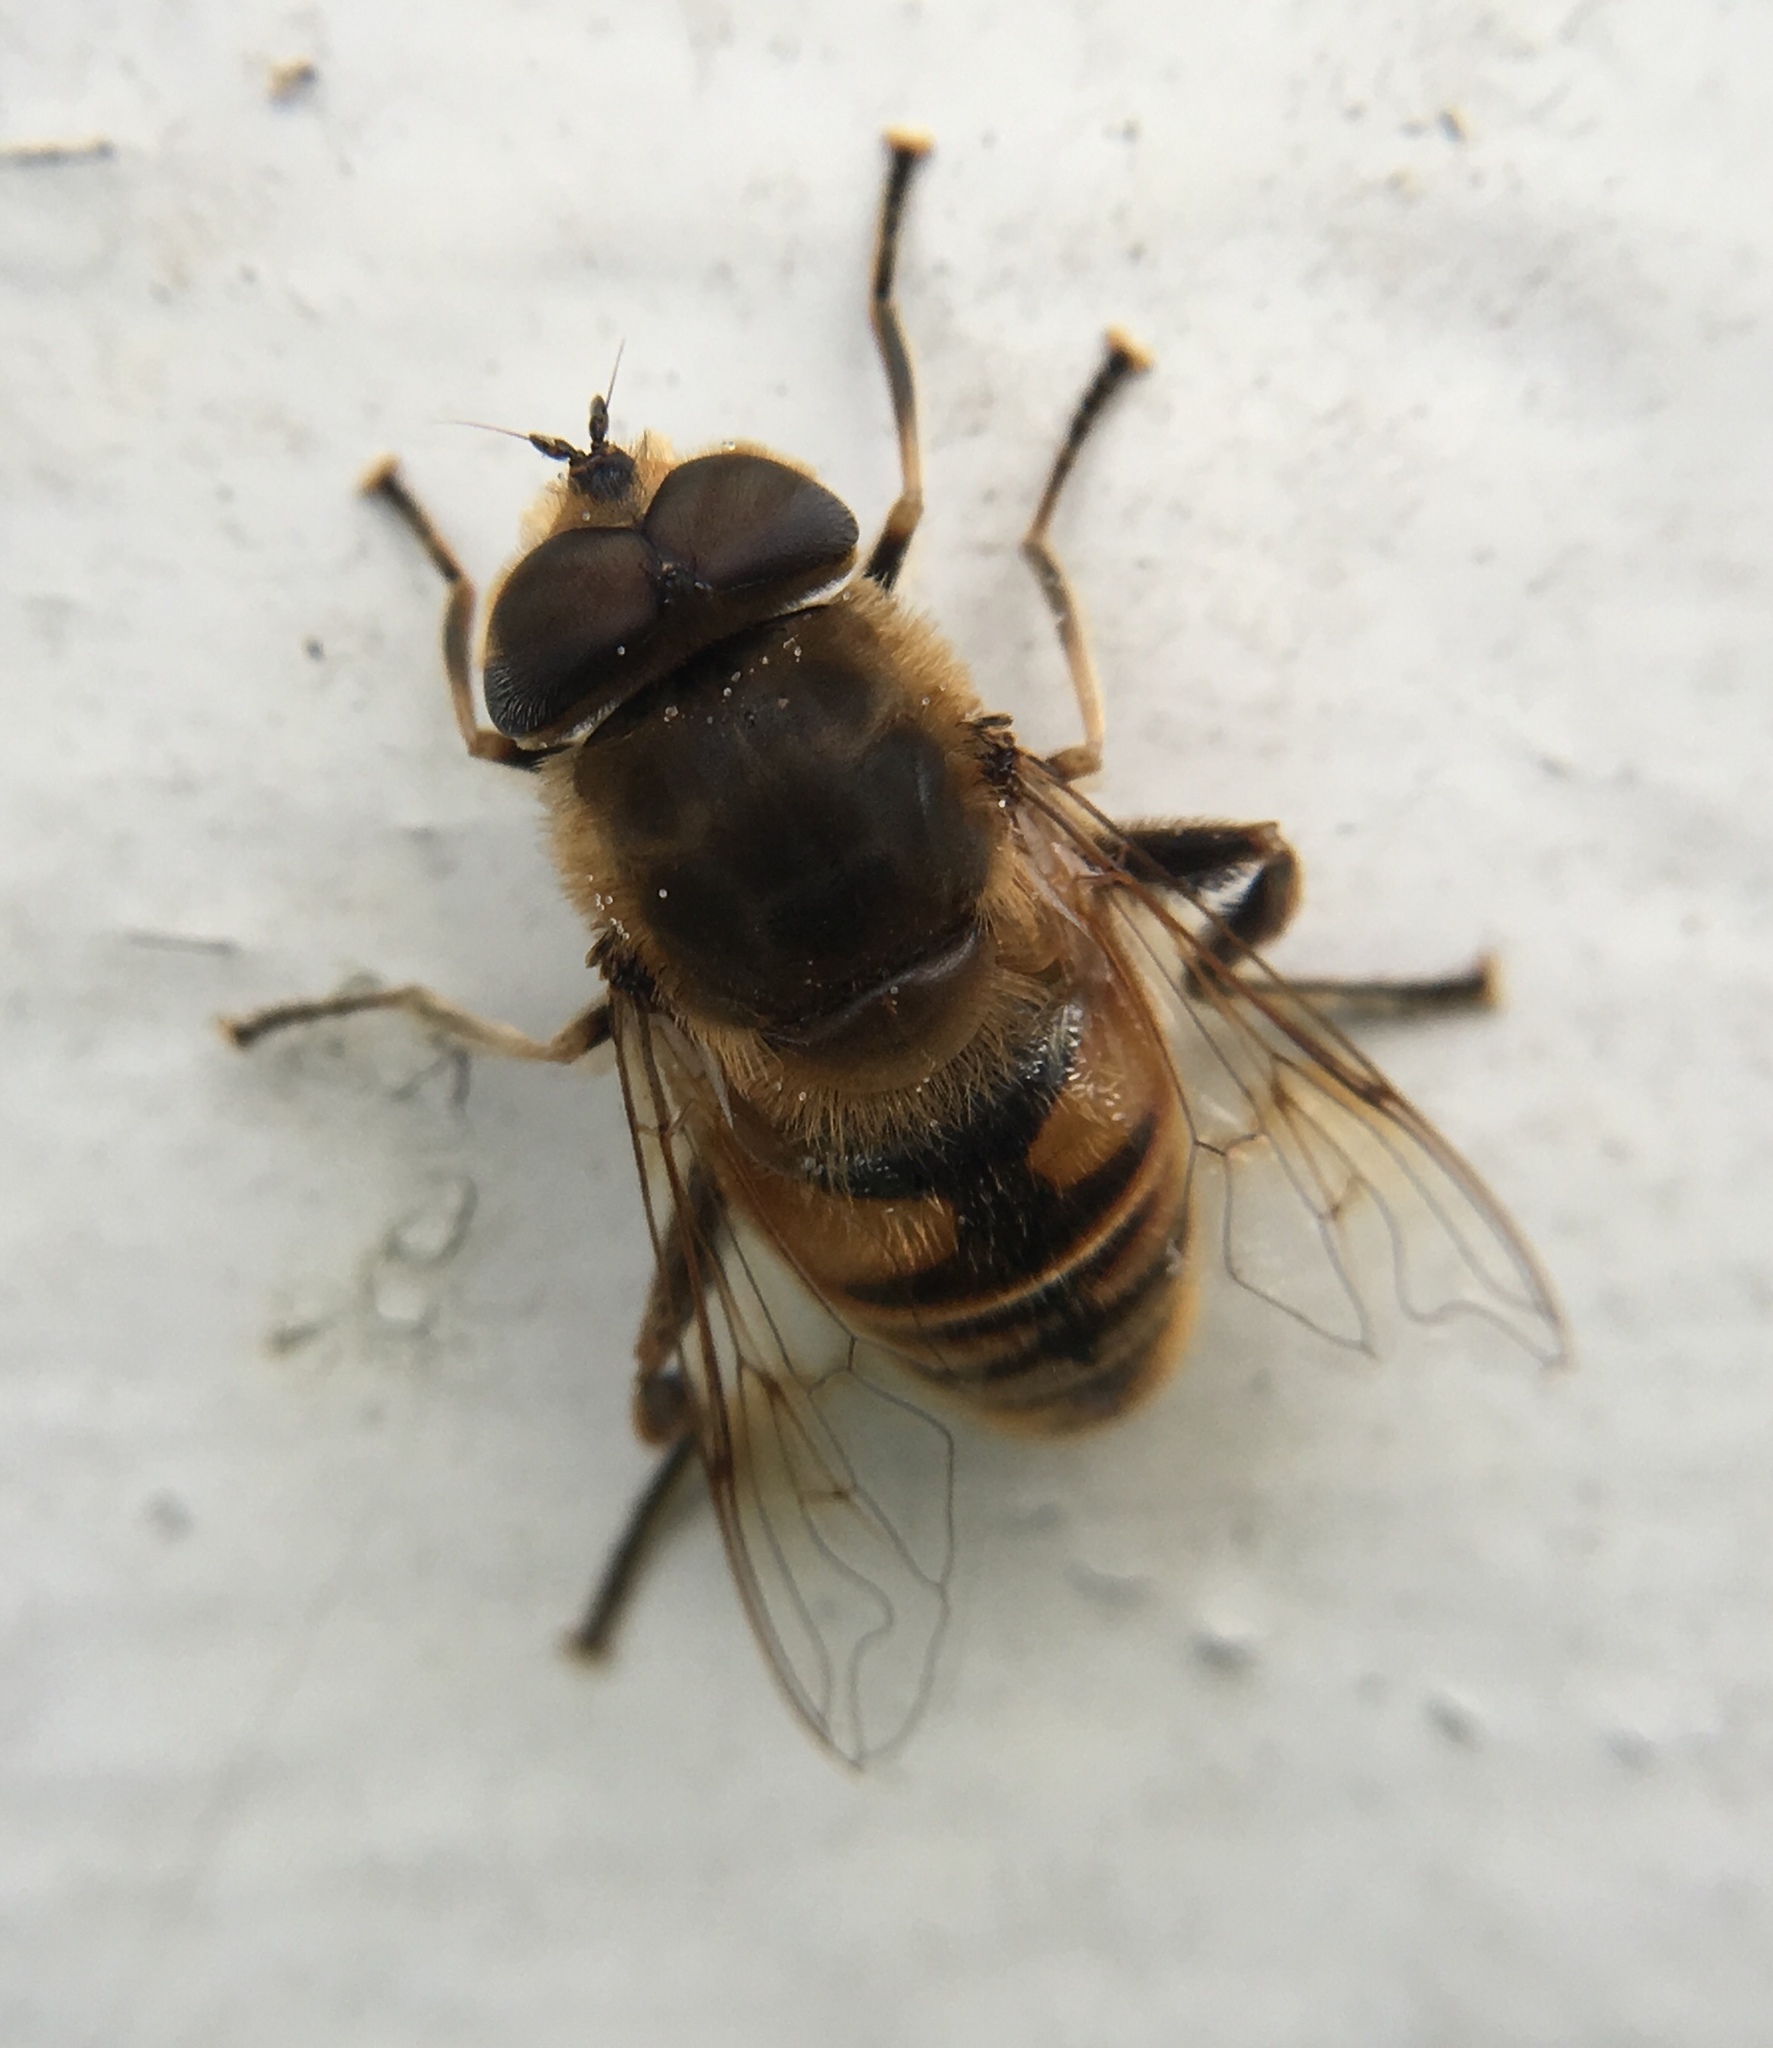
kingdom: Animalia
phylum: Arthropoda
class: Insecta
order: Diptera
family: Syrphidae
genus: Eristalis
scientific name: Eristalis tenax
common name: Drone fly
